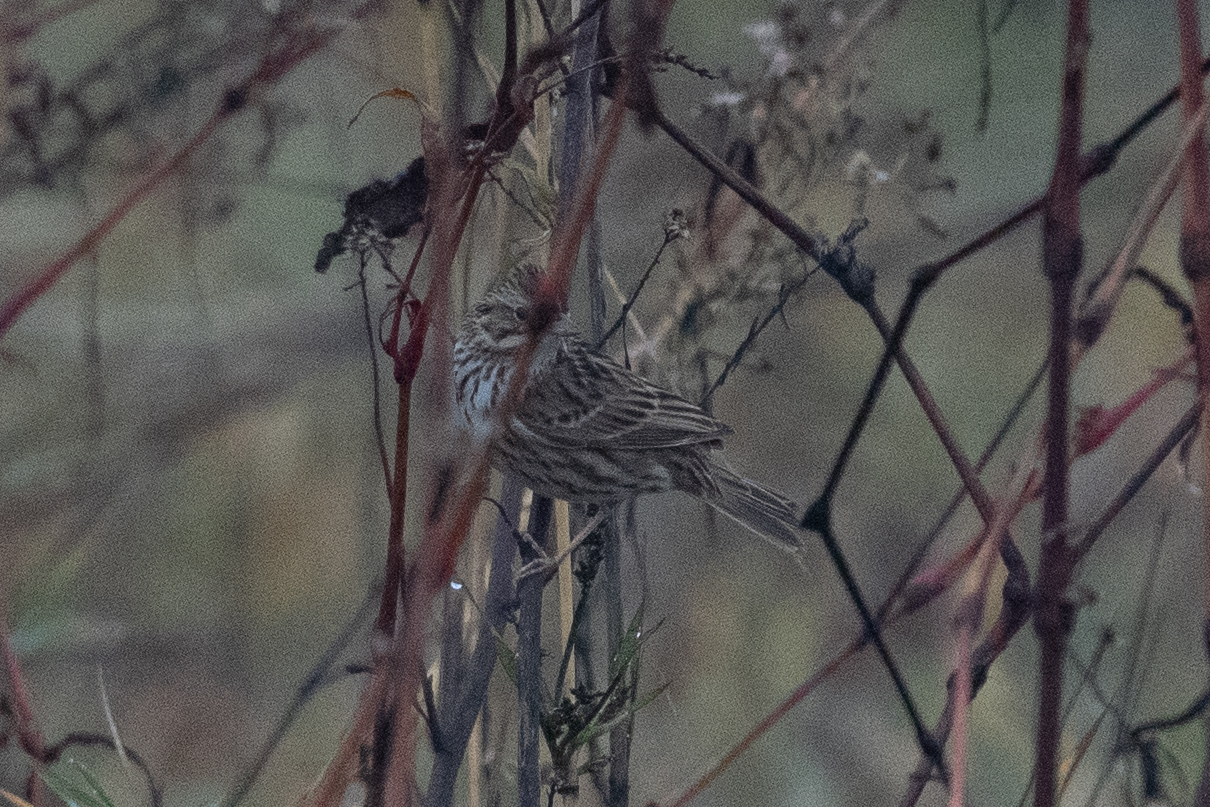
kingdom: Animalia
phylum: Chordata
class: Aves
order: Passeriformes
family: Passerellidae
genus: Passerculus
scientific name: Passerculus sandwichensis
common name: Savannah sparrow
